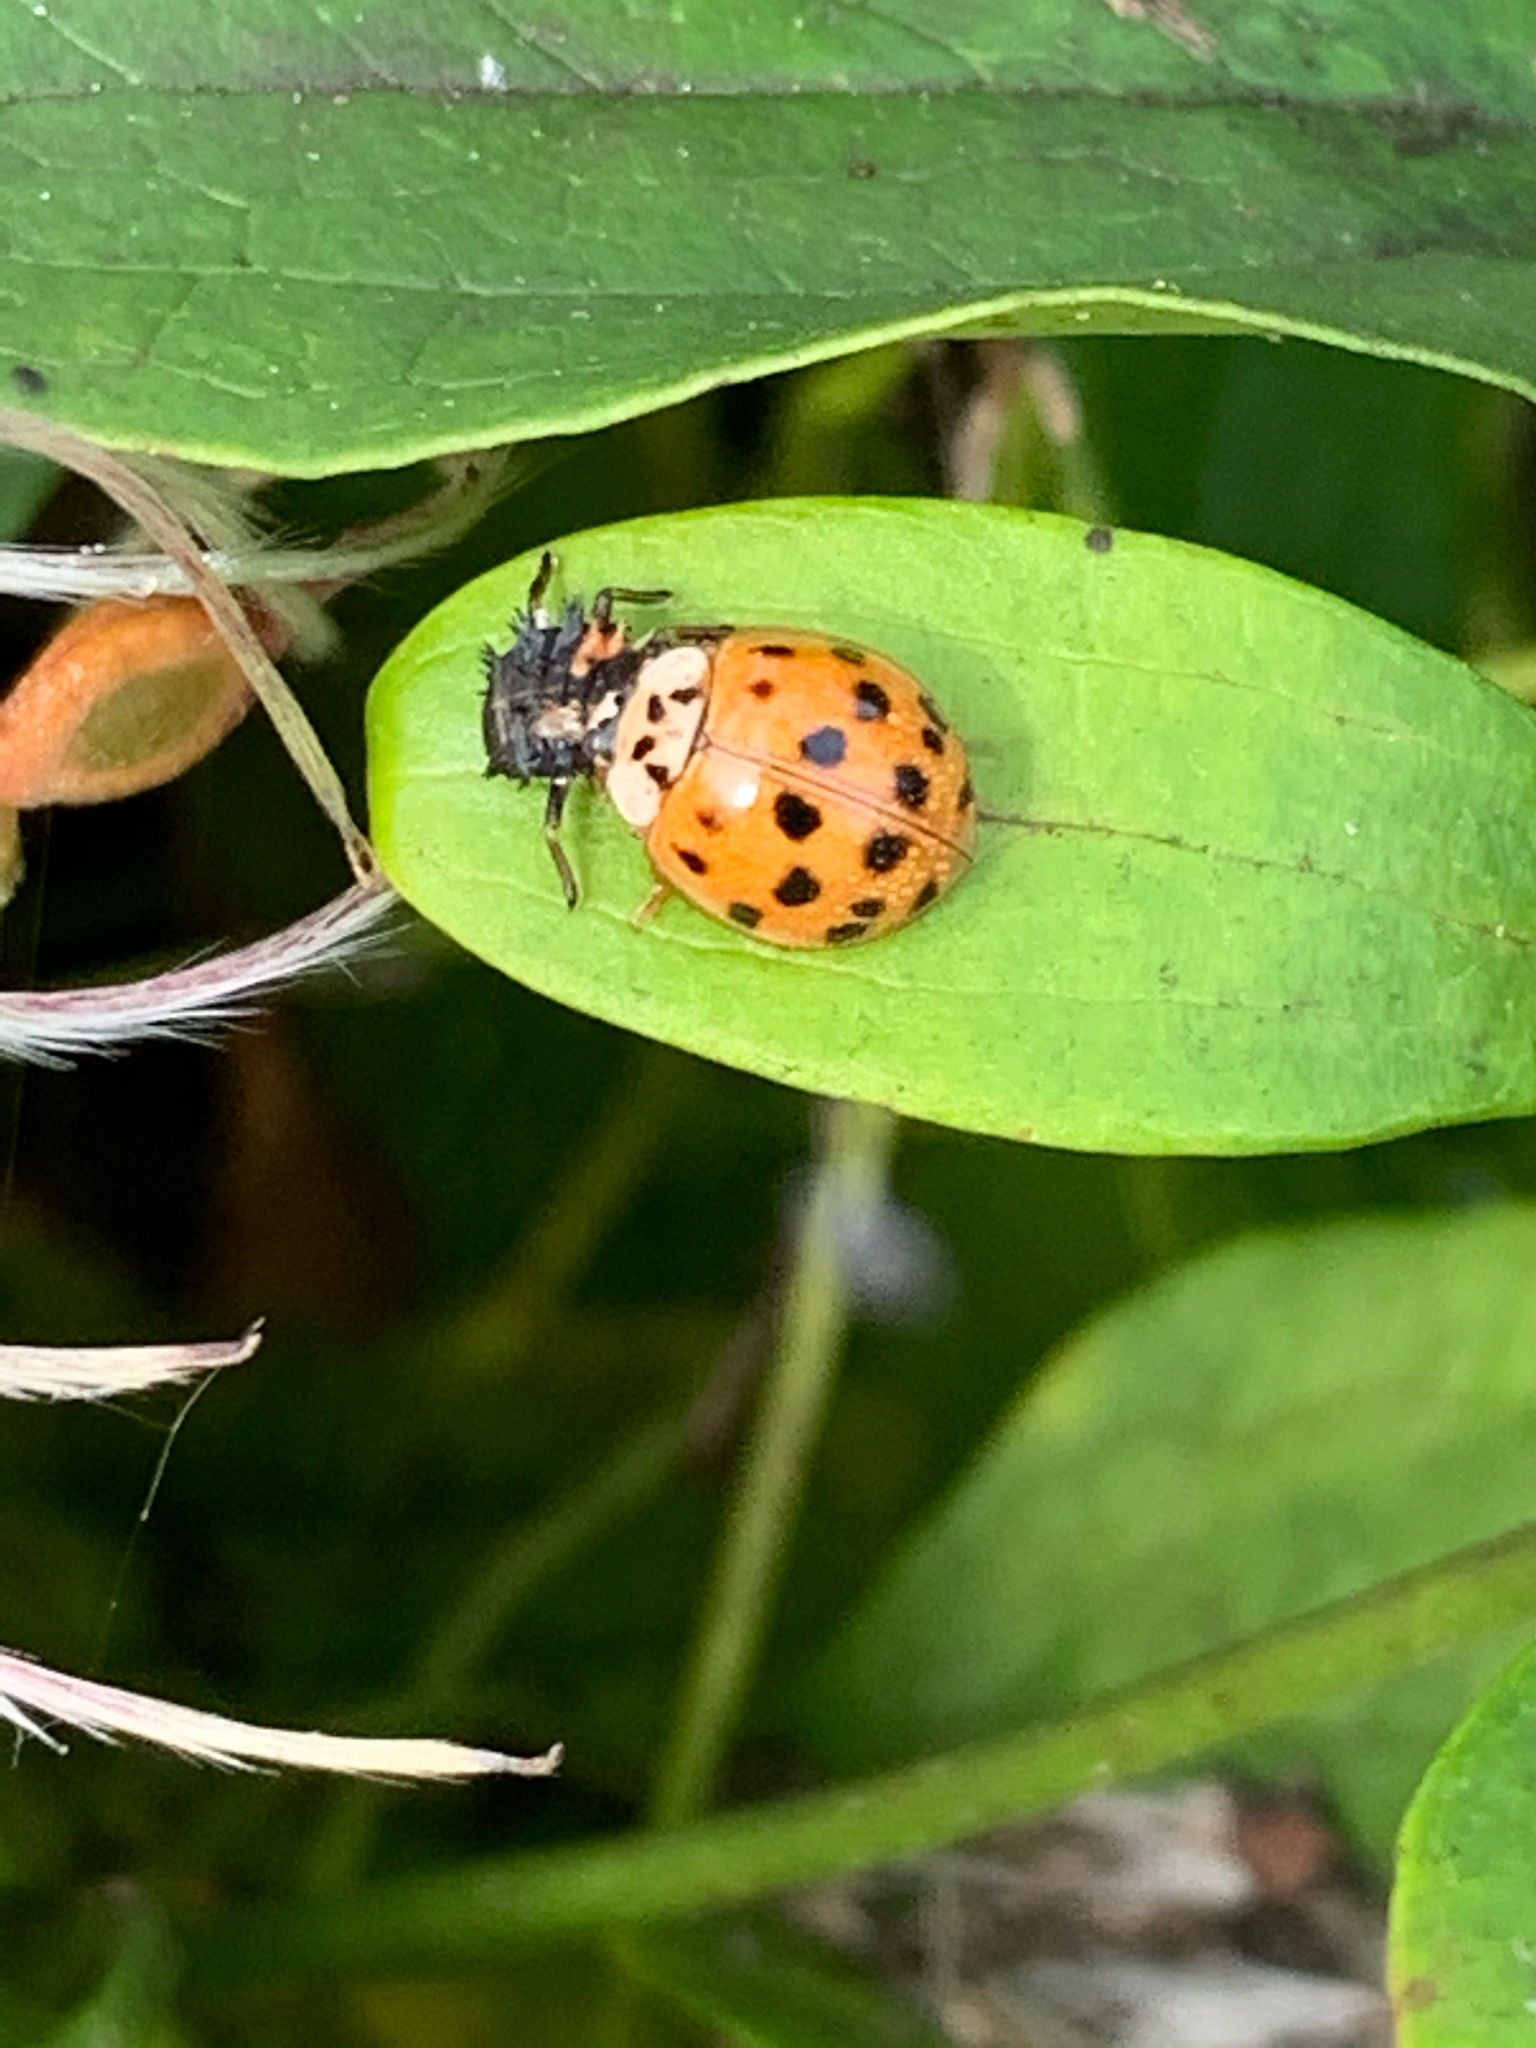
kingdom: Animalia
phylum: Arthropoda
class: Insecta
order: Coleoptera
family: Coccinellidae
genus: Harmonia
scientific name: Harmonia axyridis
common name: Harlequin ladybird
